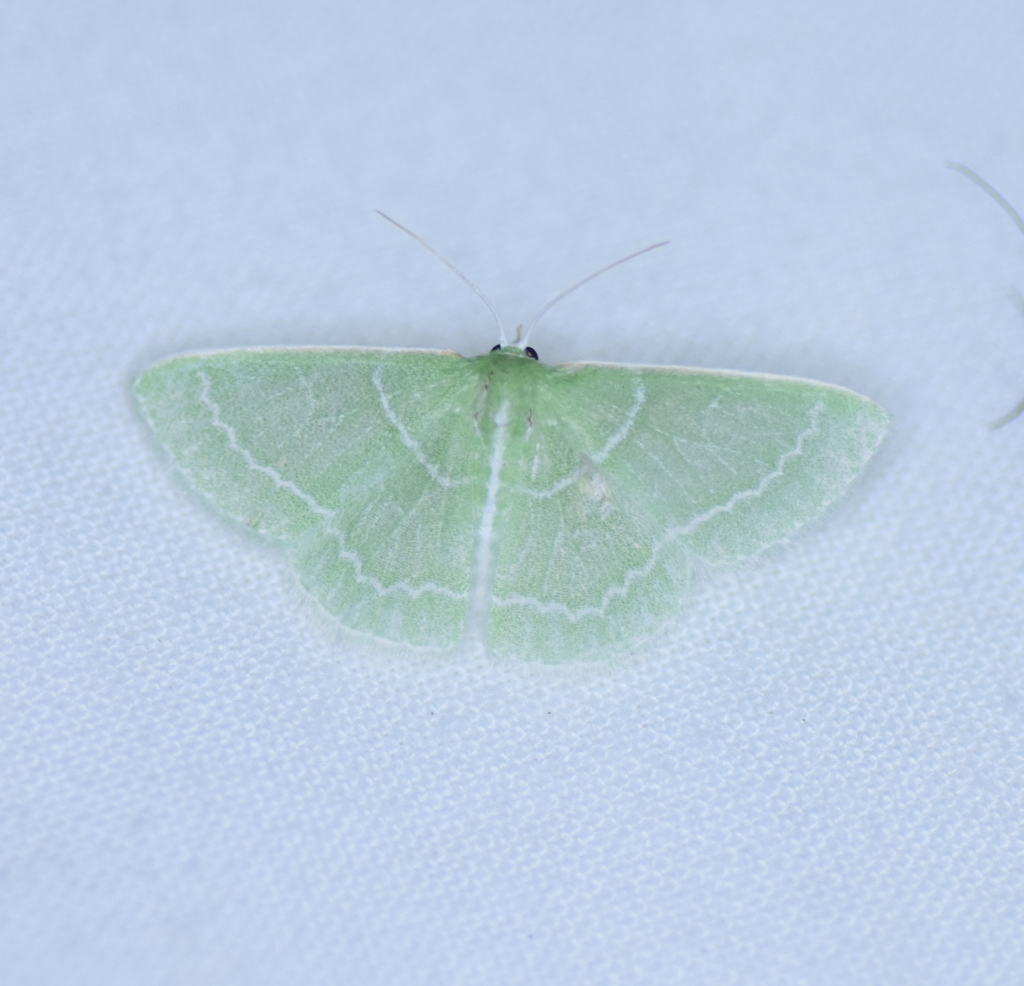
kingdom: Animalia
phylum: Arthropoda
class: Insecta
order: Lepidoptera
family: Geometridae
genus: Synchlora
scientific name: Synchlora aerata
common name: Wavy-lined emerald
